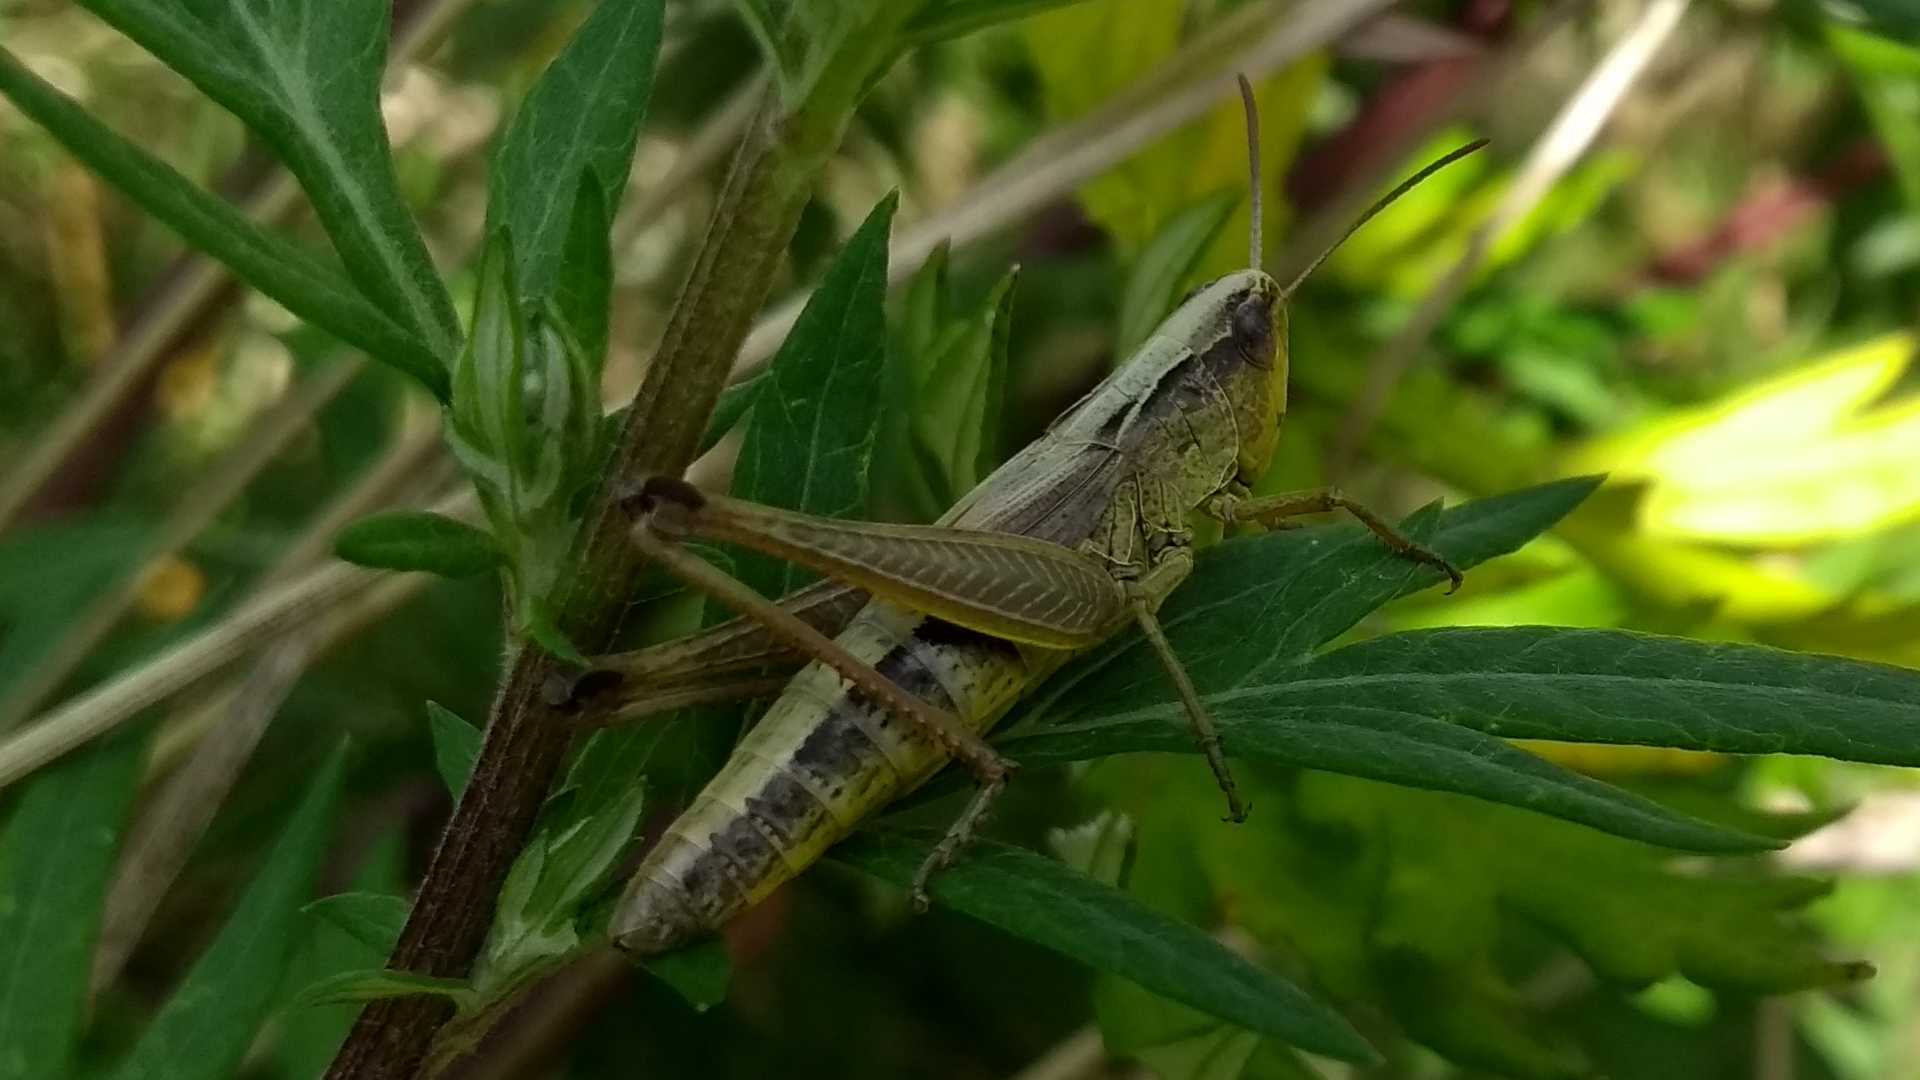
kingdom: Animalia
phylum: Arthropoda
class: Insecta
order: Orthoptera
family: Acrididae
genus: Pseudochorthippus
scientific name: Pseudochorthippus parallelus
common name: Meadow grasshopper
